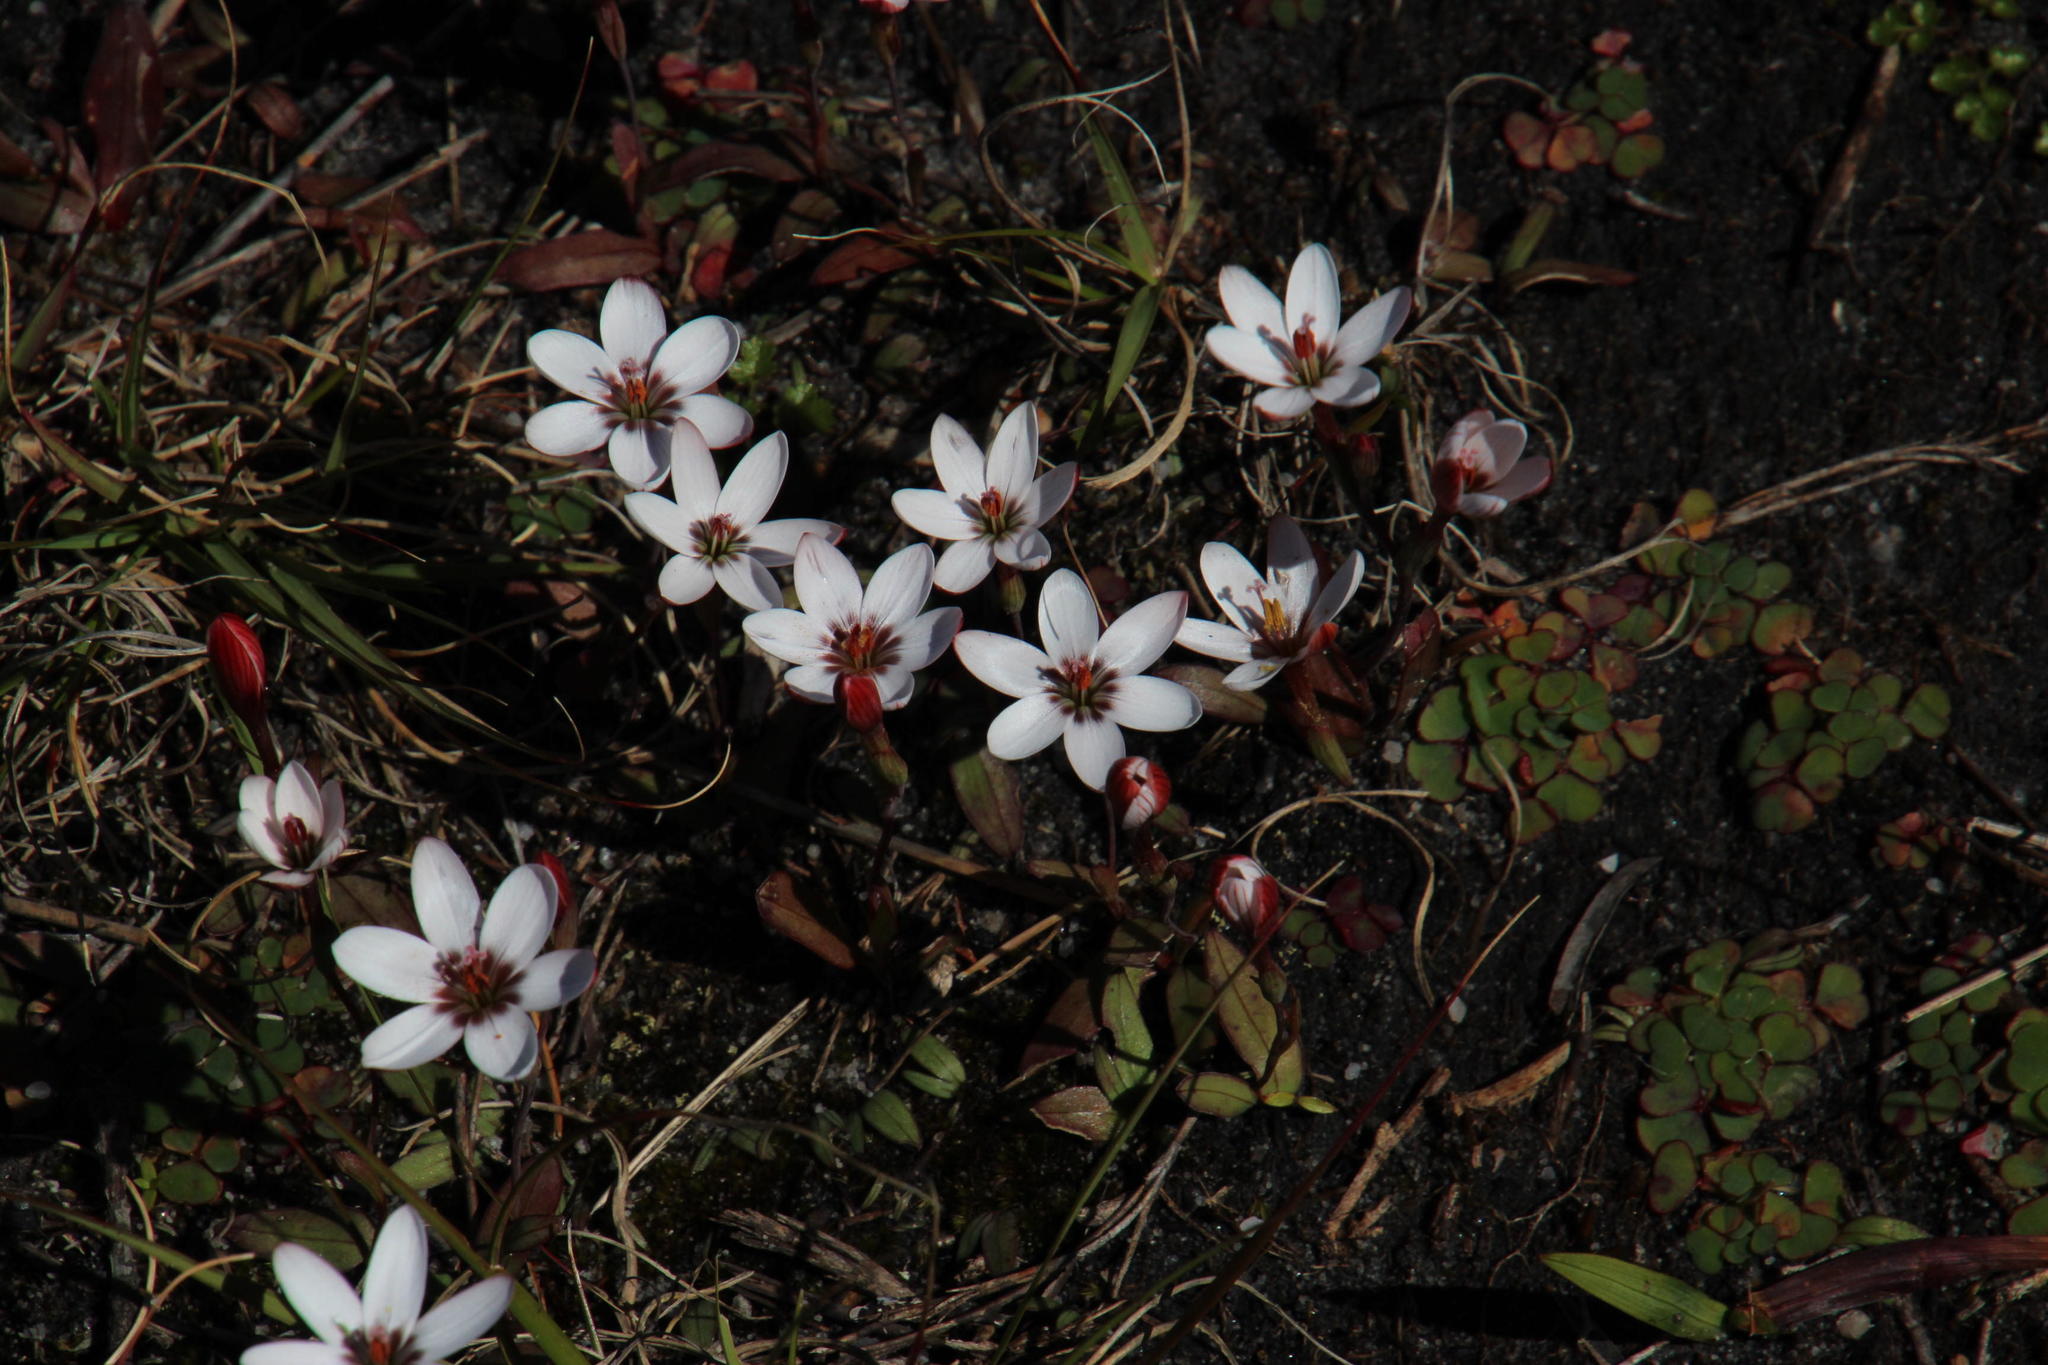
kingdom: Plantae
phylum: Tracheophyta
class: Liliopsida
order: Asparagales
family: Iridaceae
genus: Geissorhiza
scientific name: Geissorhiza ovata
